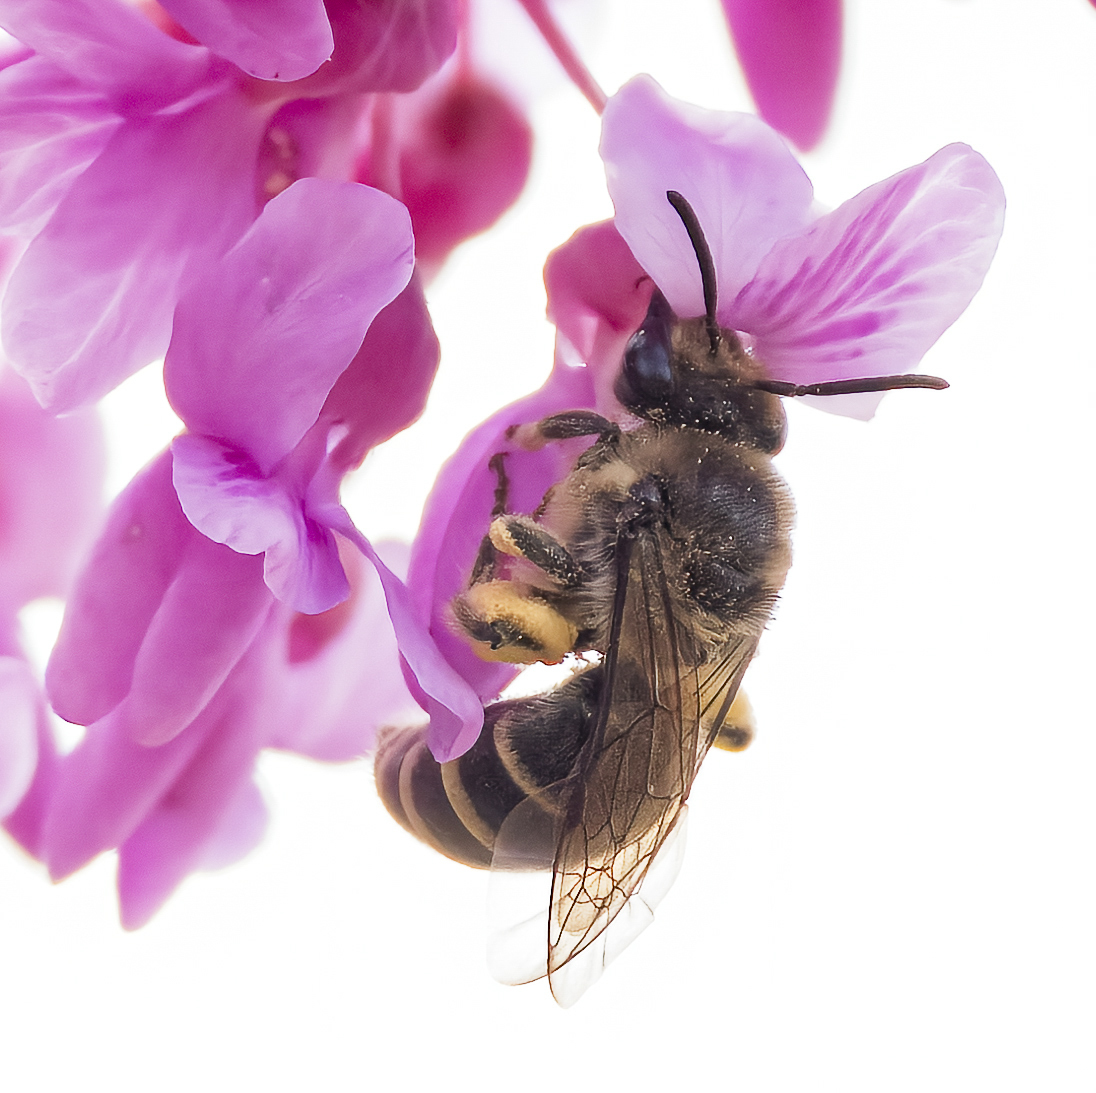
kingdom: Animalia
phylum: Arthropoda
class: Insecta
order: Hymenoptera
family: Colletidae
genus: Colletes
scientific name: Colletes inaequalis
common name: Unequal cellophane bee
